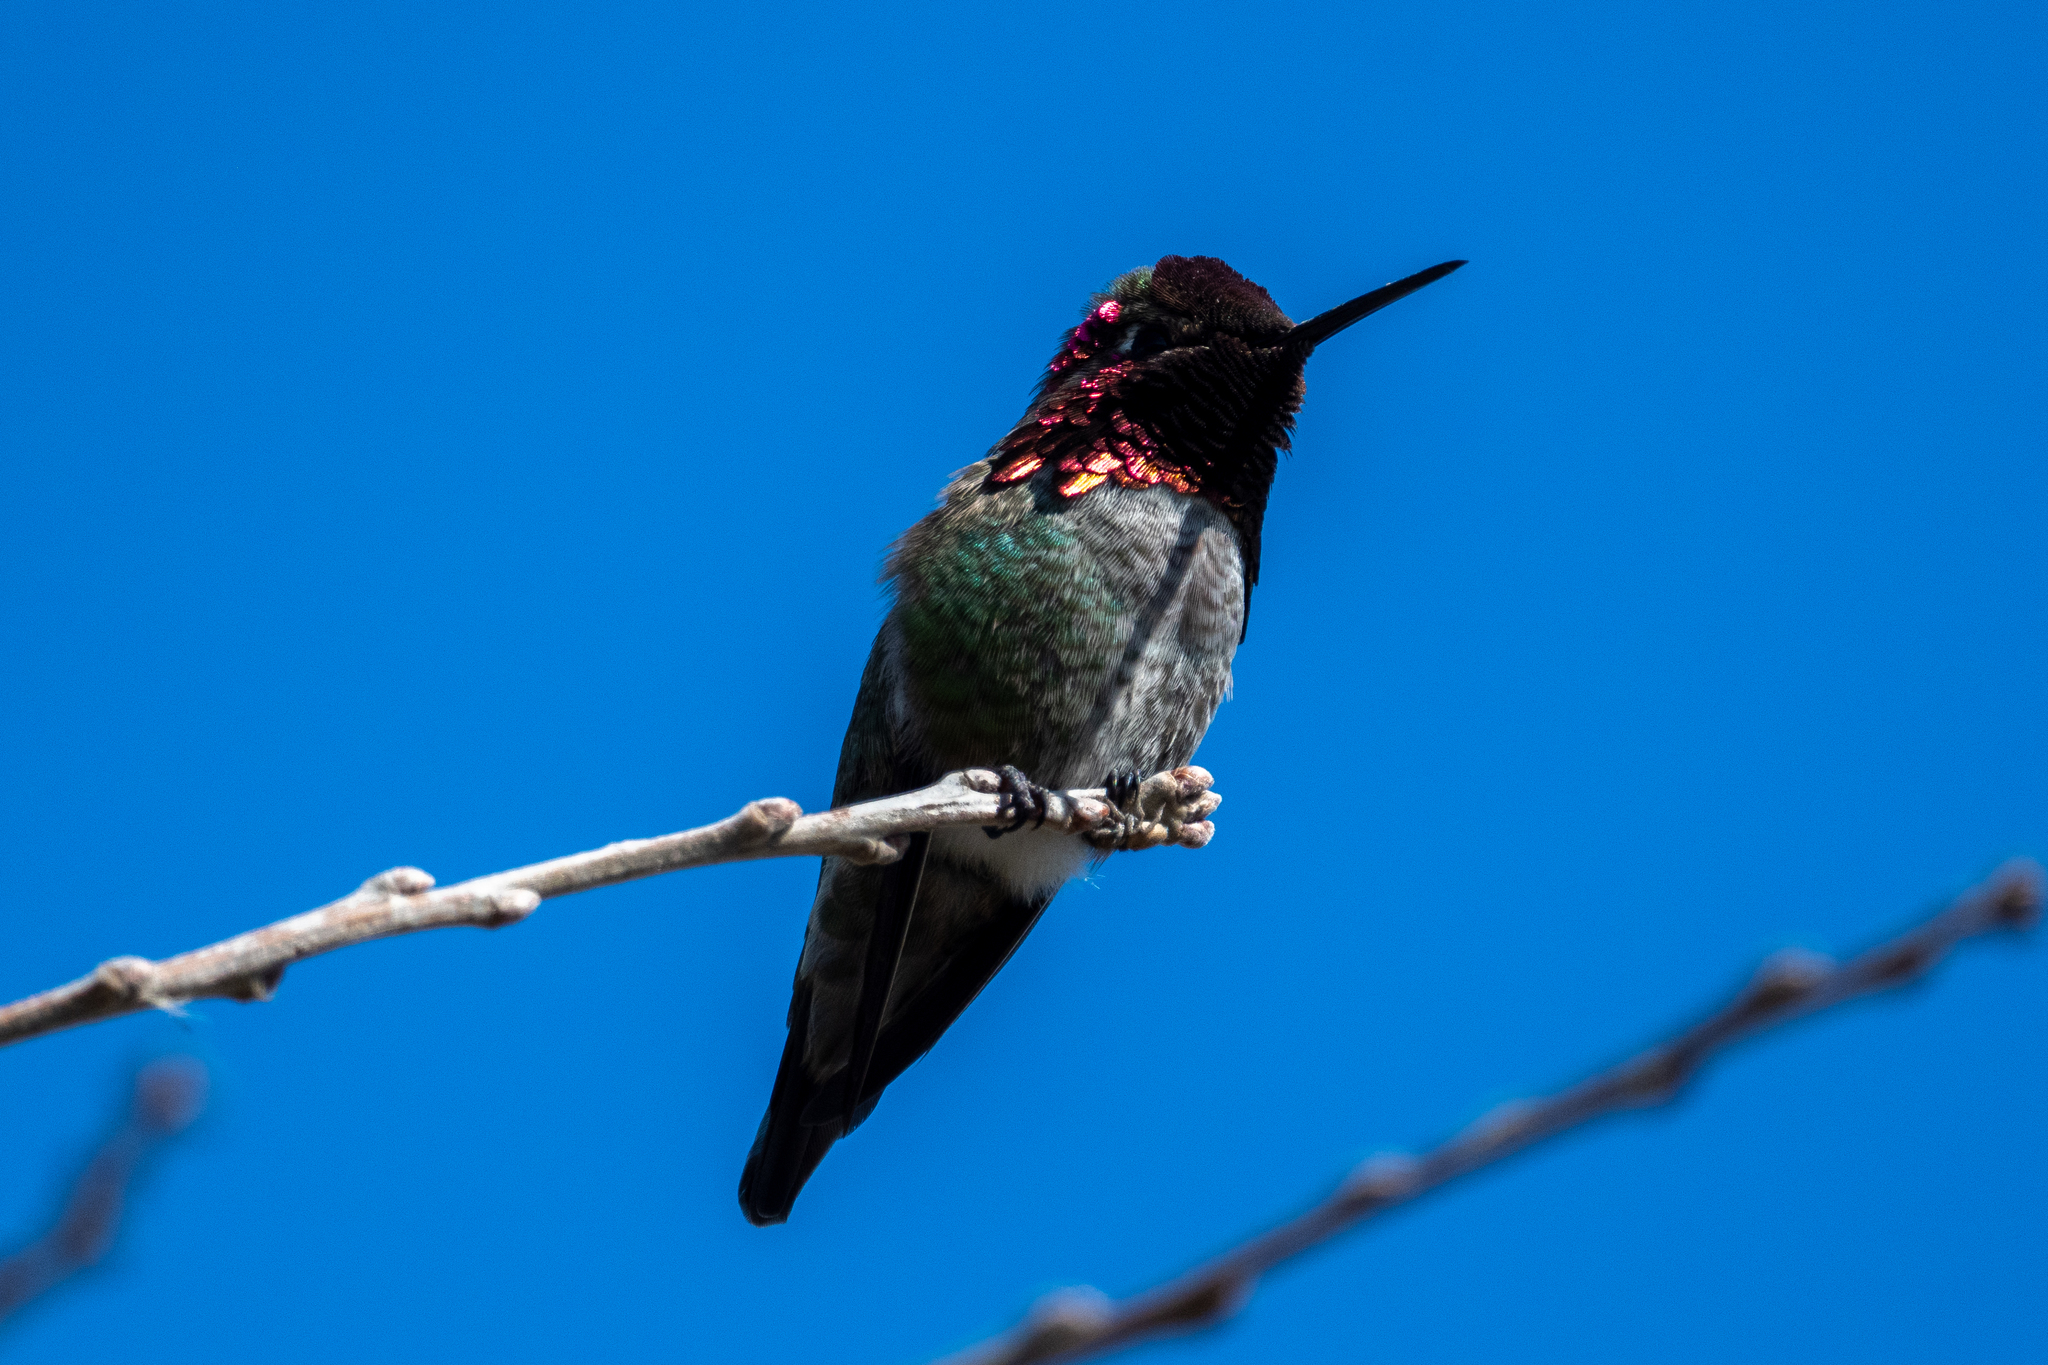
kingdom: Animalia
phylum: Chordata
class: Aves
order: Apodiformes
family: Trochilidae
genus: Calypte
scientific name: Calypte anna
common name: Anna's hummingbird
